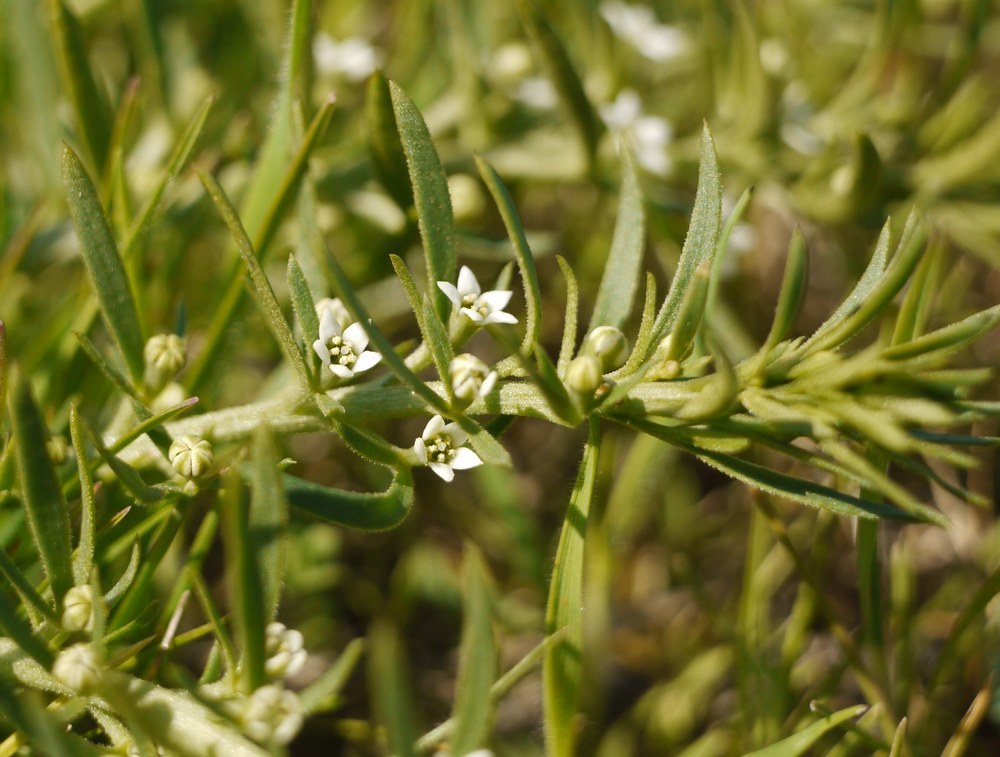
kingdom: Plantae
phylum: Tracheophyta
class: Magnoliopsida
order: Santalales
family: Thesiaceae
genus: Thesium
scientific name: Thesium ramosum
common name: Field thesium
